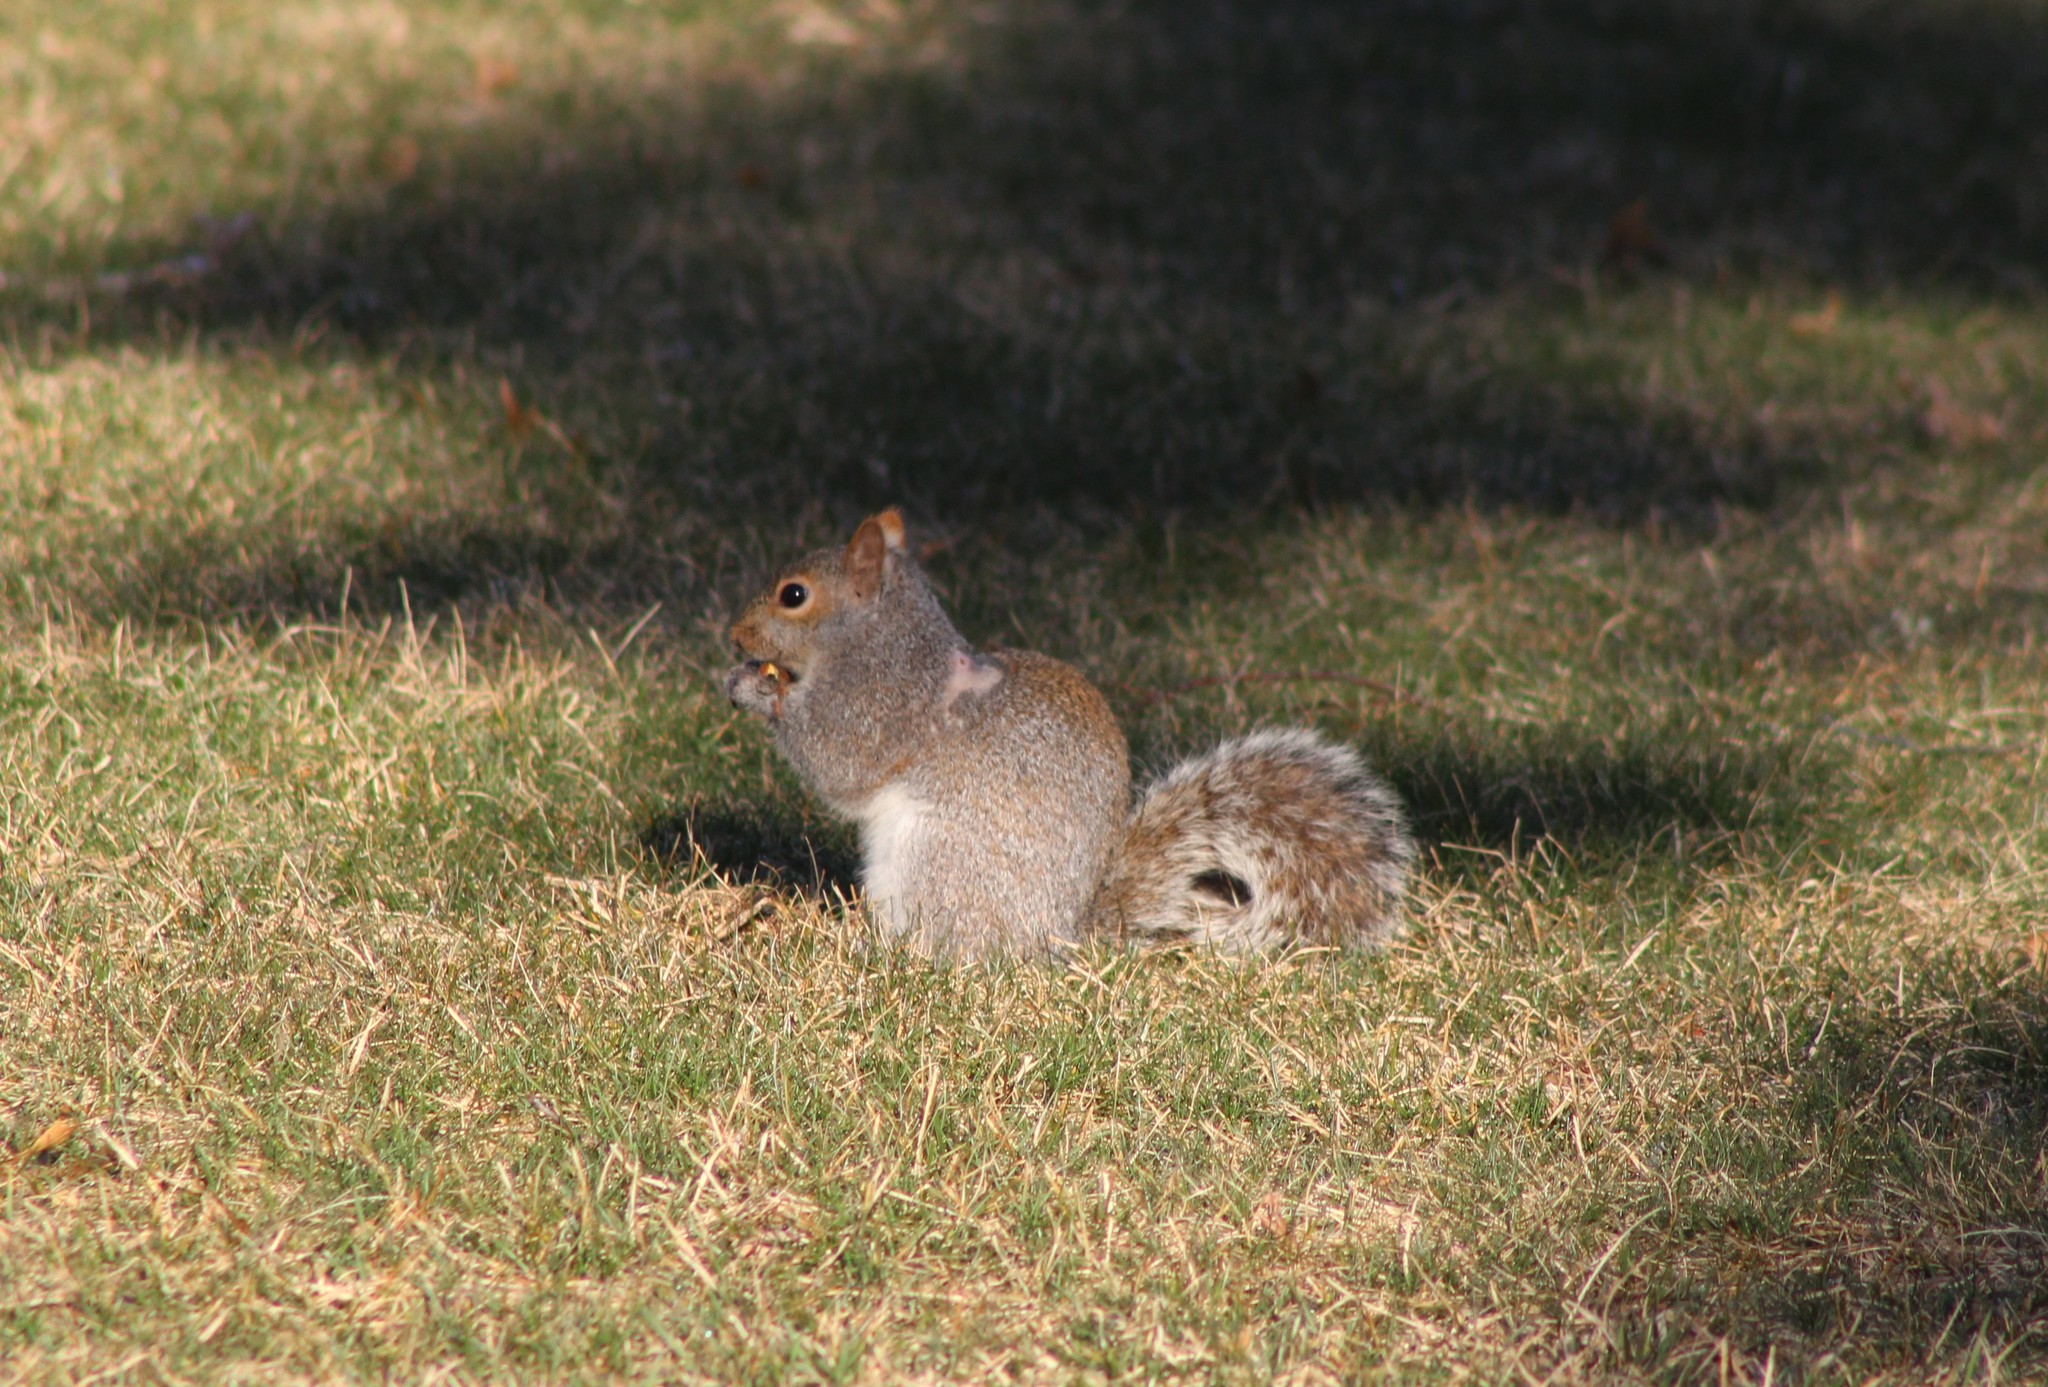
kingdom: Animalia
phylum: Chordata
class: Mammalia
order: Rodentia
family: Sciuridae
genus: Sciurus
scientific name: Sciurus carolinensis
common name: Eastern gray squirrel
